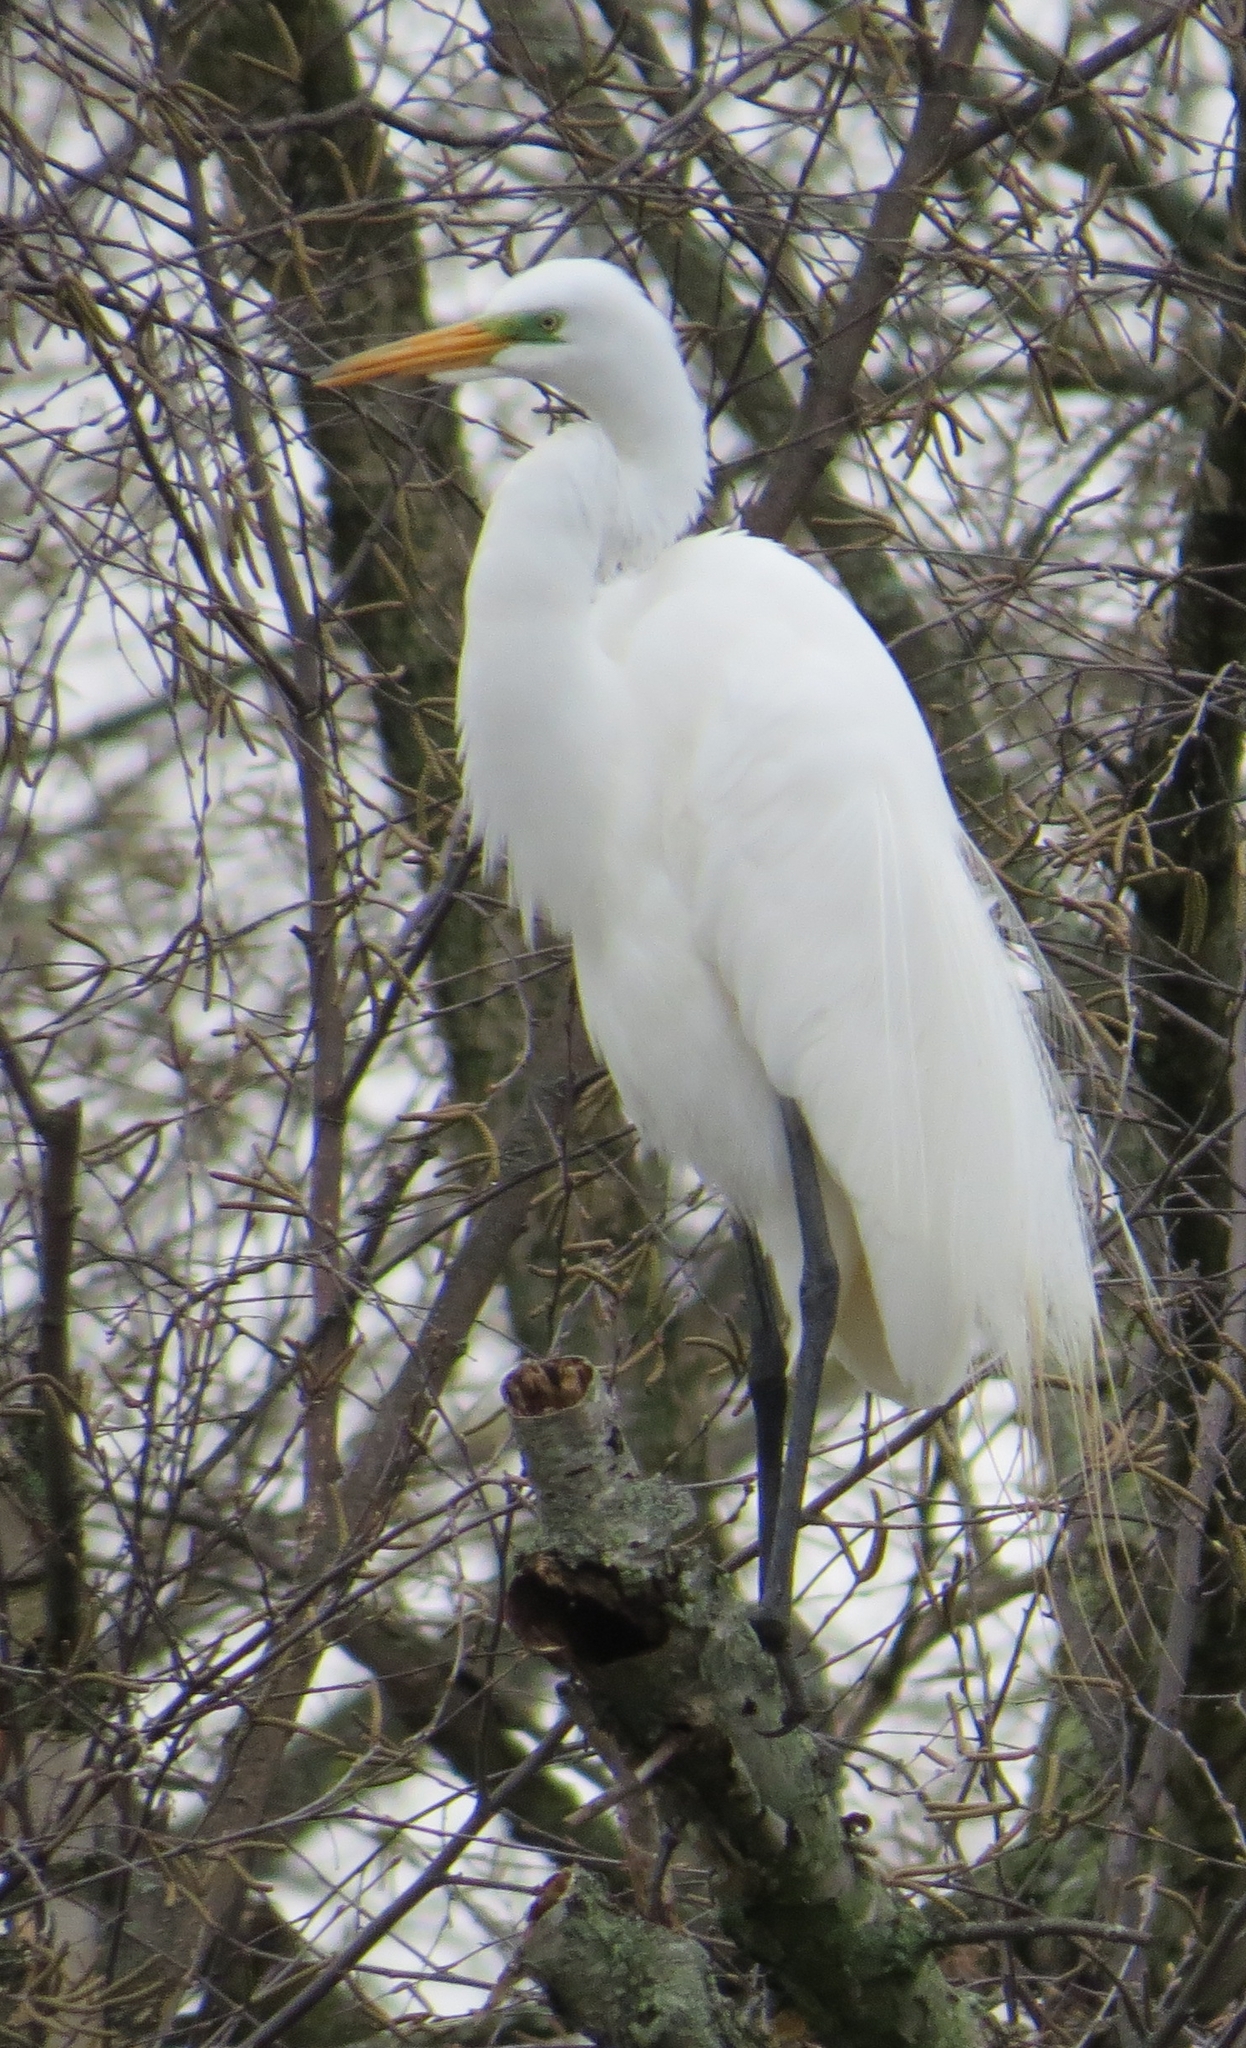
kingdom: Animalia
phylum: Chordata
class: Aves
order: Pelecaniformes
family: Ardeidae
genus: Ardea
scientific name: Ardea alba
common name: Great egret
